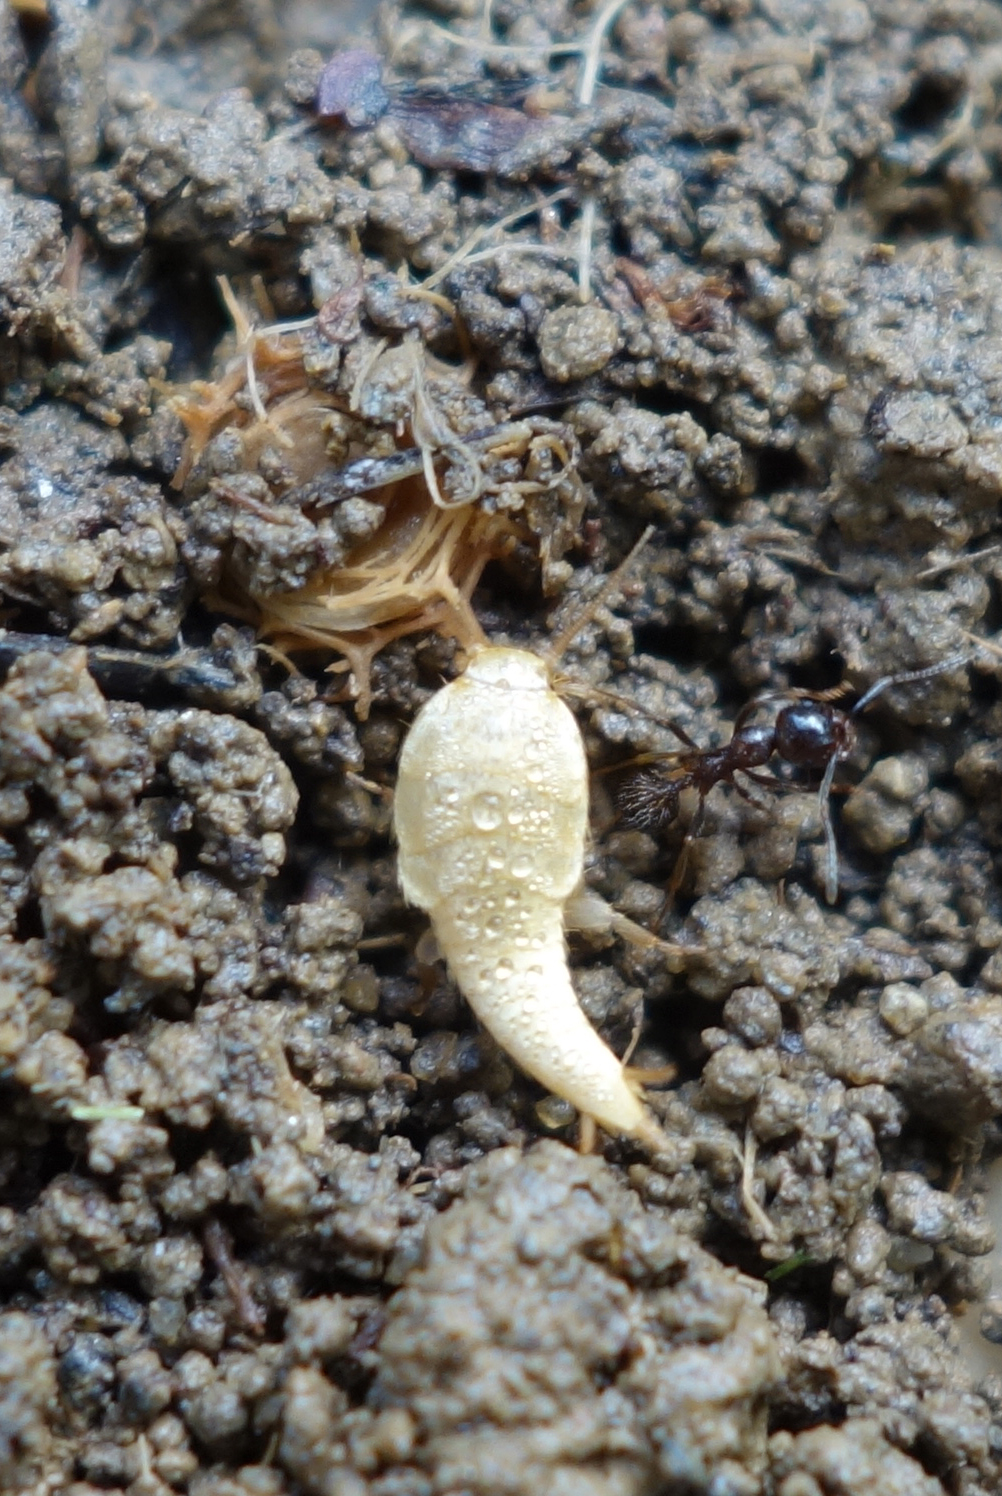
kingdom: Animalia
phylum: Arthropoda
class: Insecta
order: Zygentoma
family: Lepismatidae
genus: Tricholepisma
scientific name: Tricholepisma aurea
